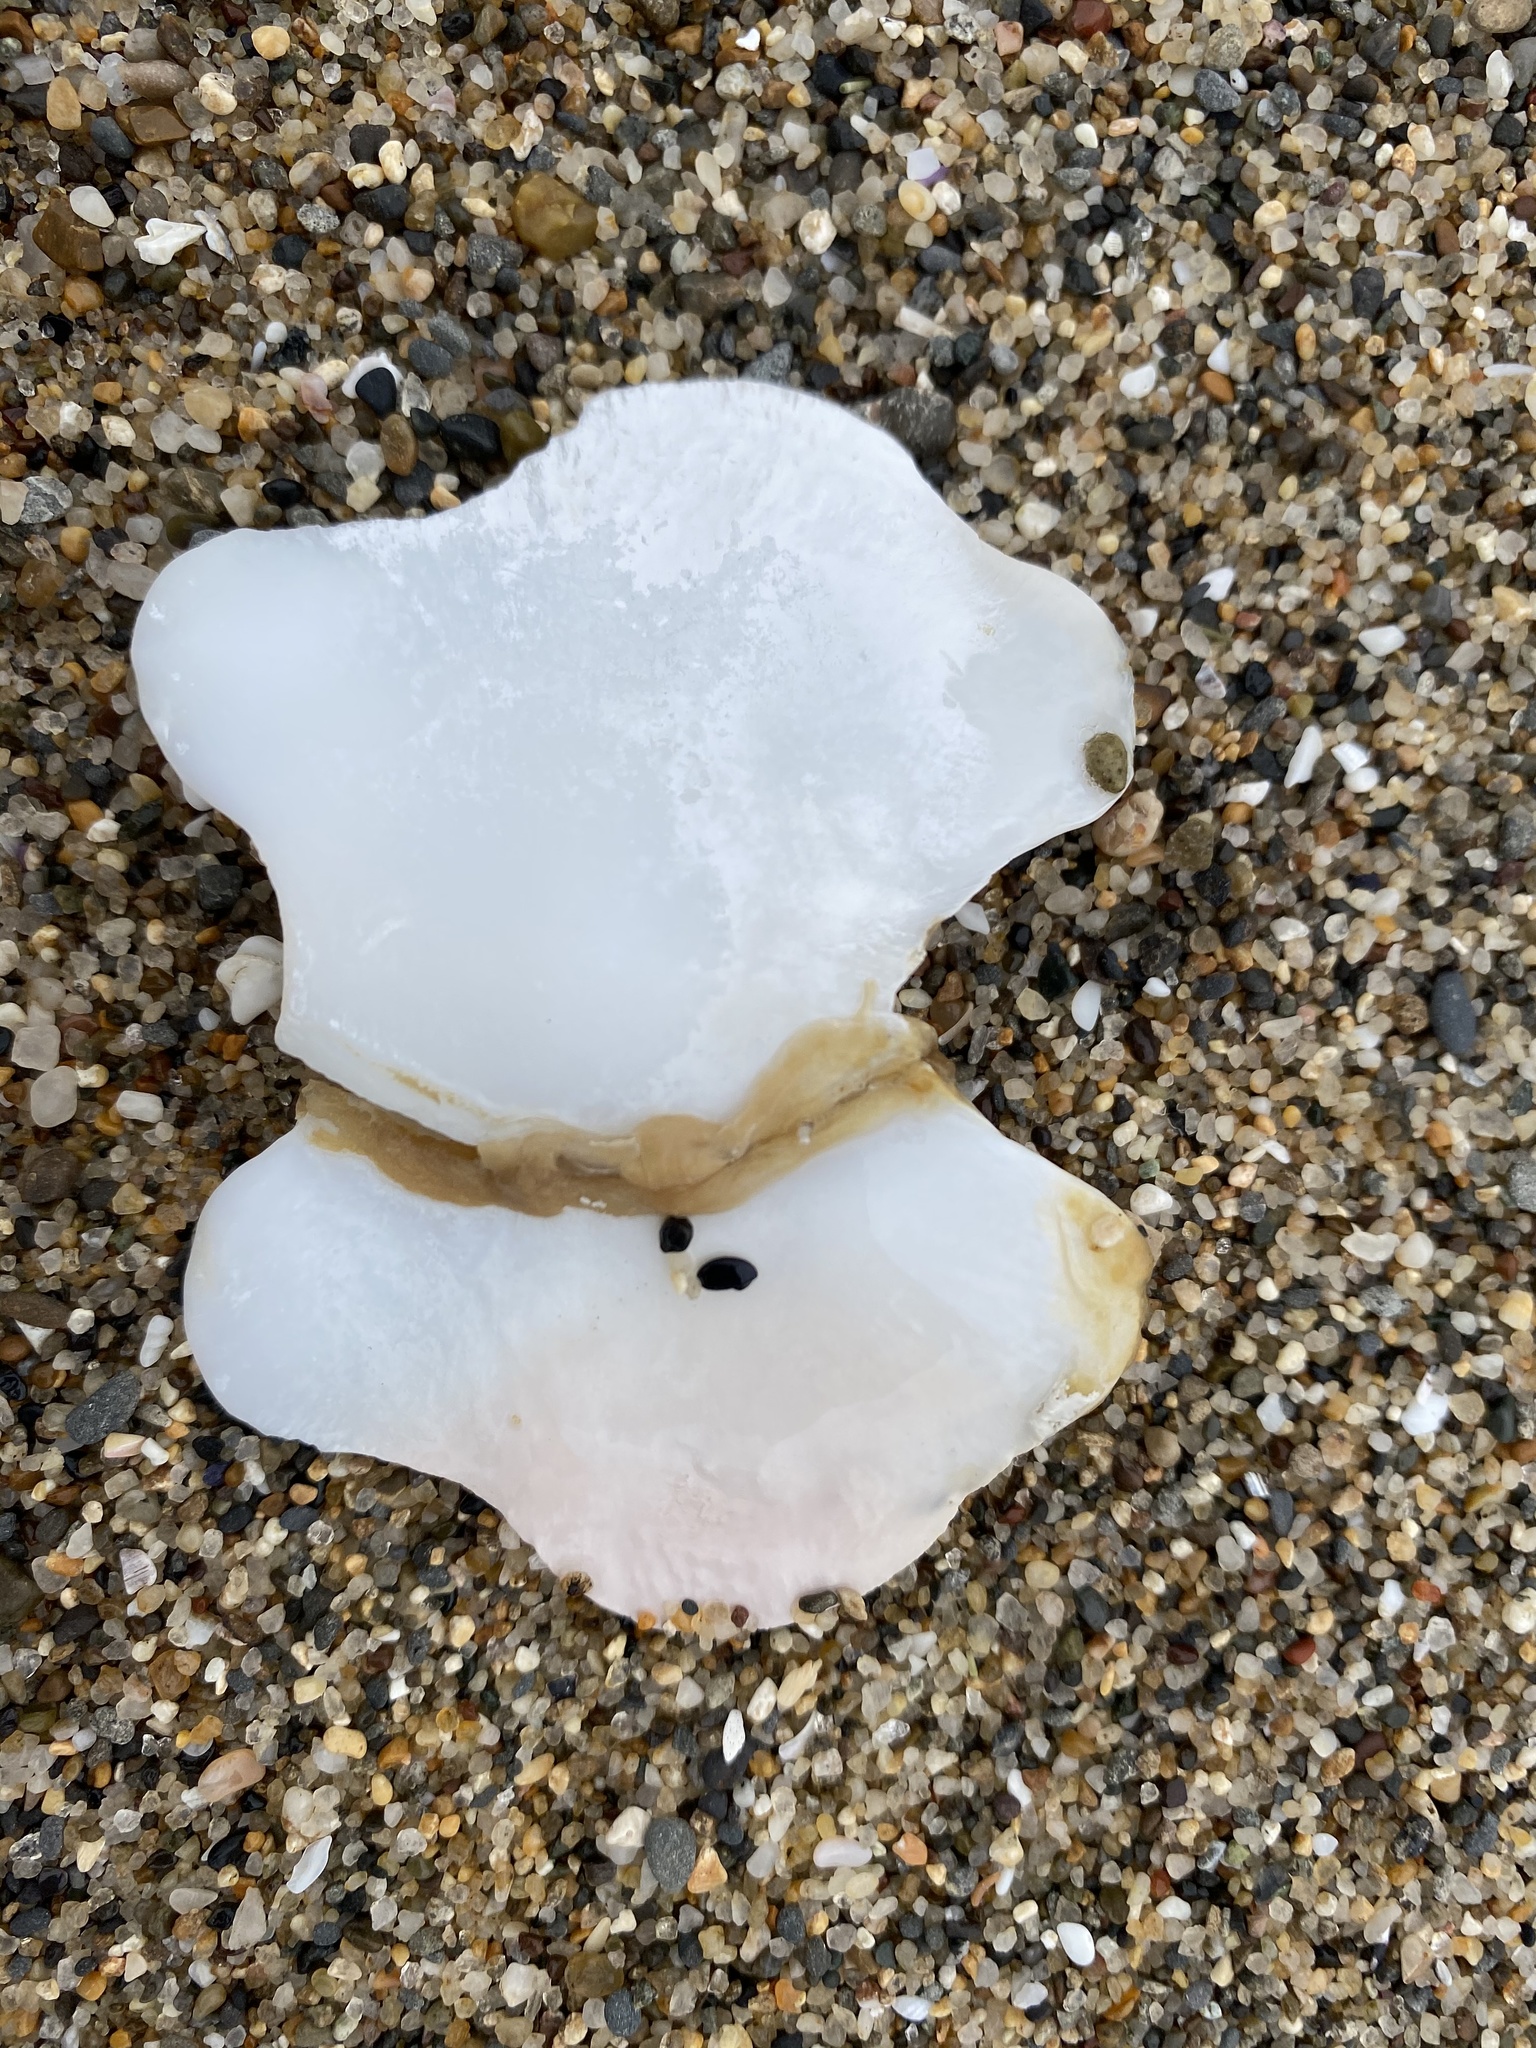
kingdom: Animalia
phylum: Mollusca
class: Polyplacophora
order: Chitonida
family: Acanthochitonidae
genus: Cryptochiton
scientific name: Cryptochiton stelleri
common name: Giant pacific chiton
